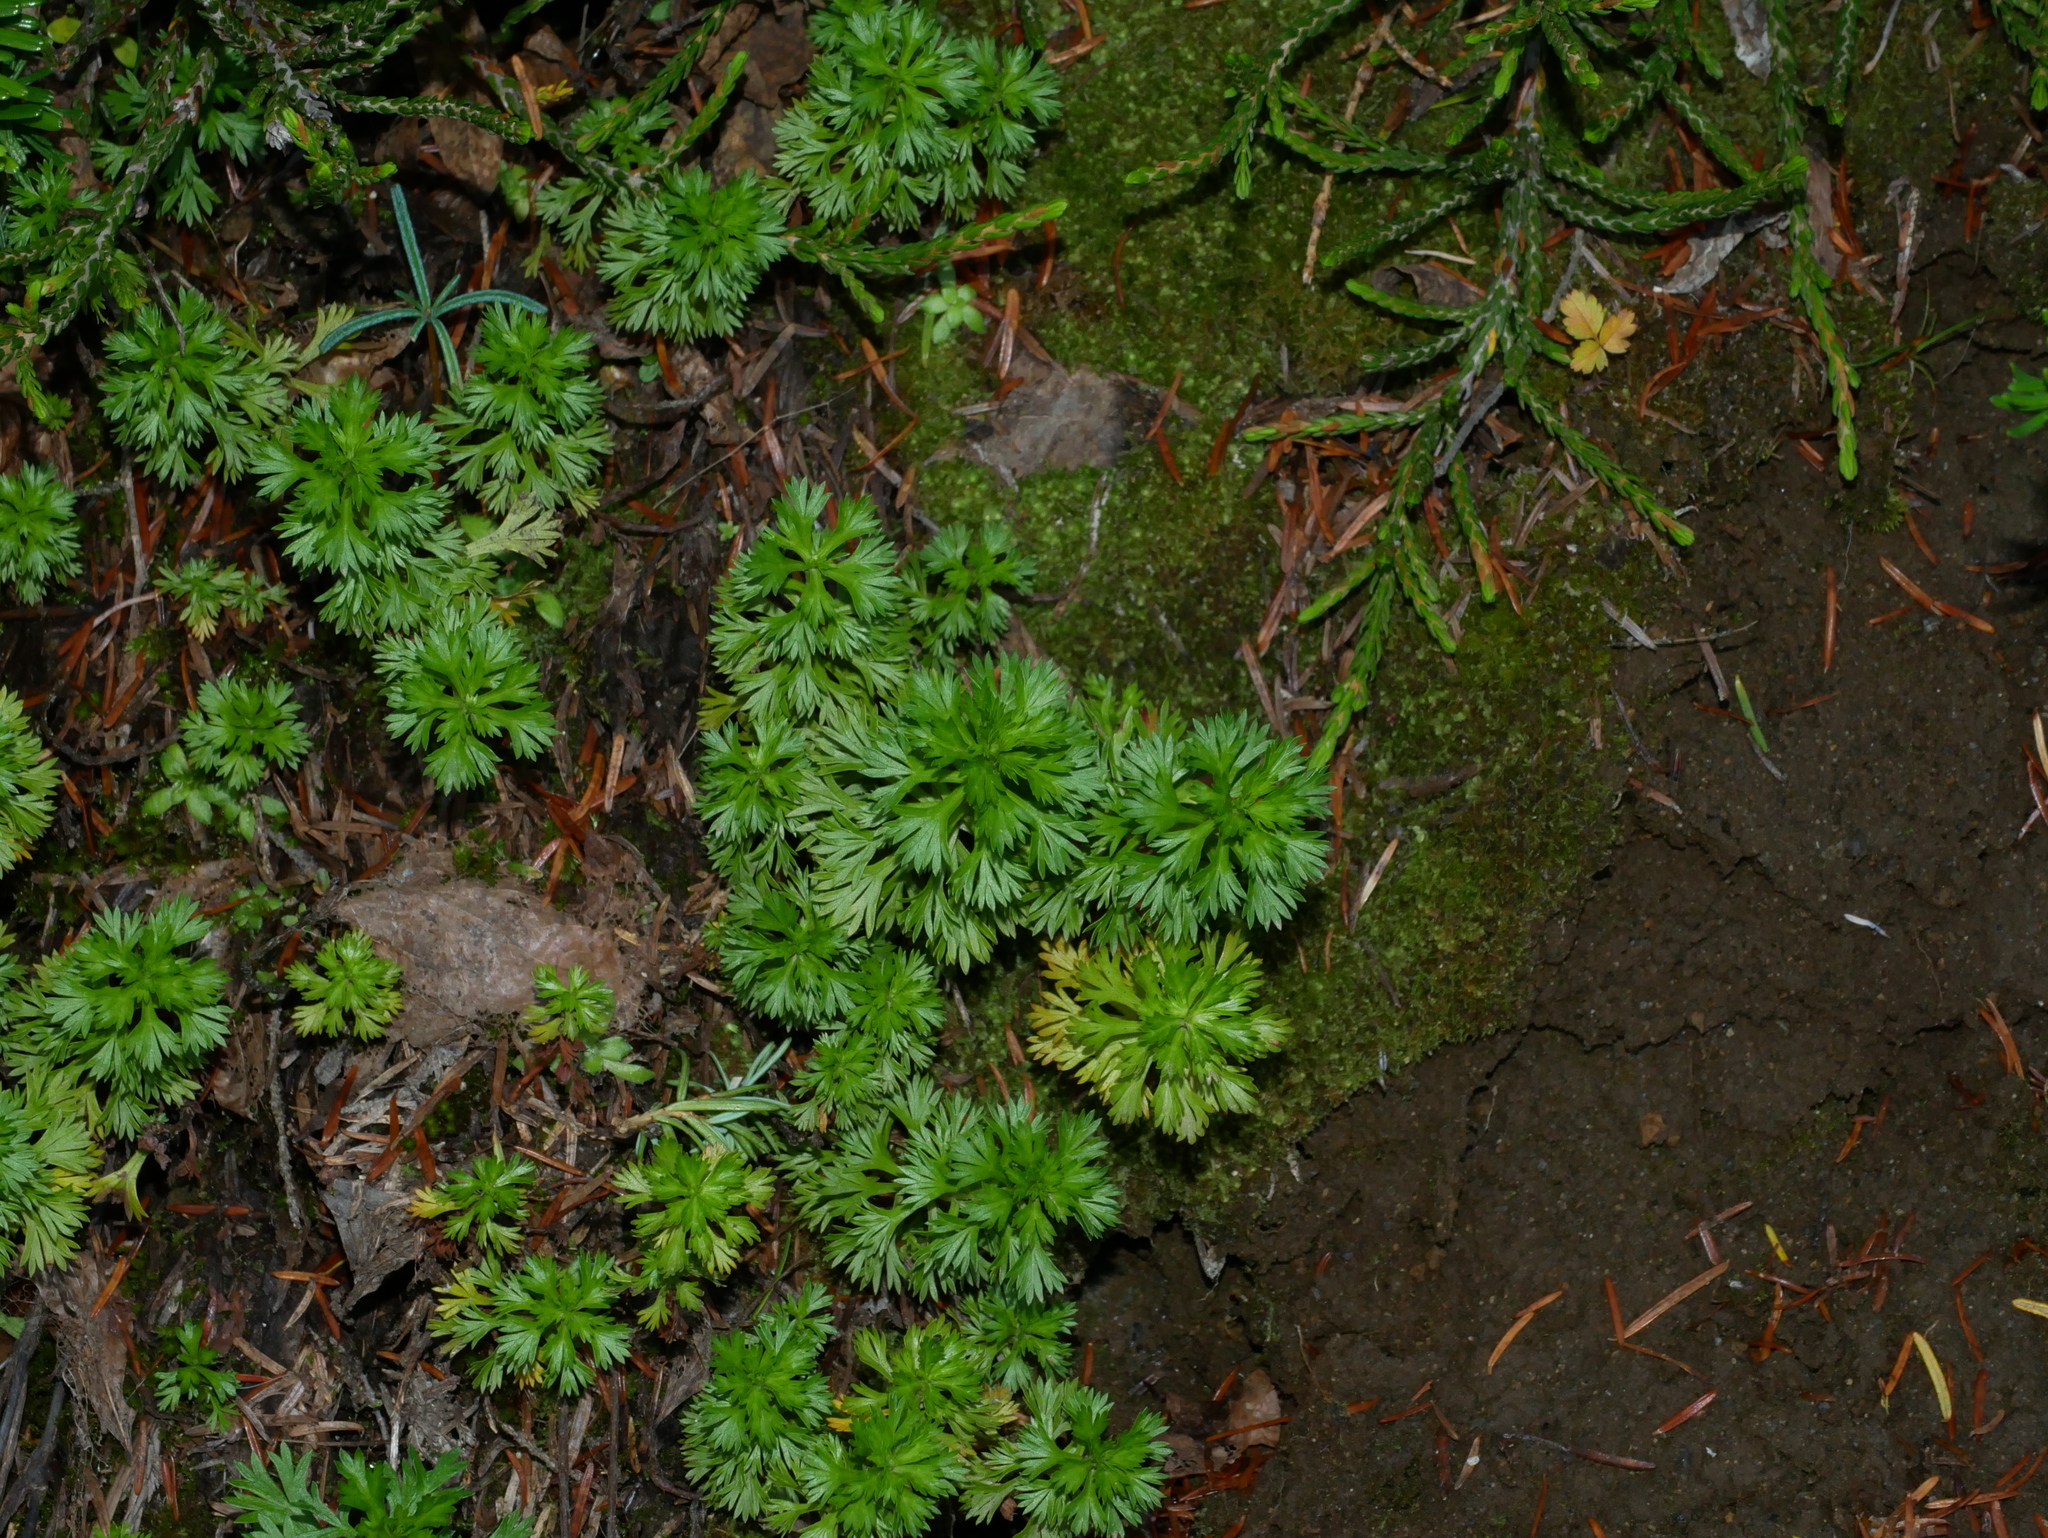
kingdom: Plantae
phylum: Tracheophyta
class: Magnoliopsida
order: Rosales
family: Rosaceae
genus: Luetkea
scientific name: Luetkea pectinata
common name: Partridgefoot
